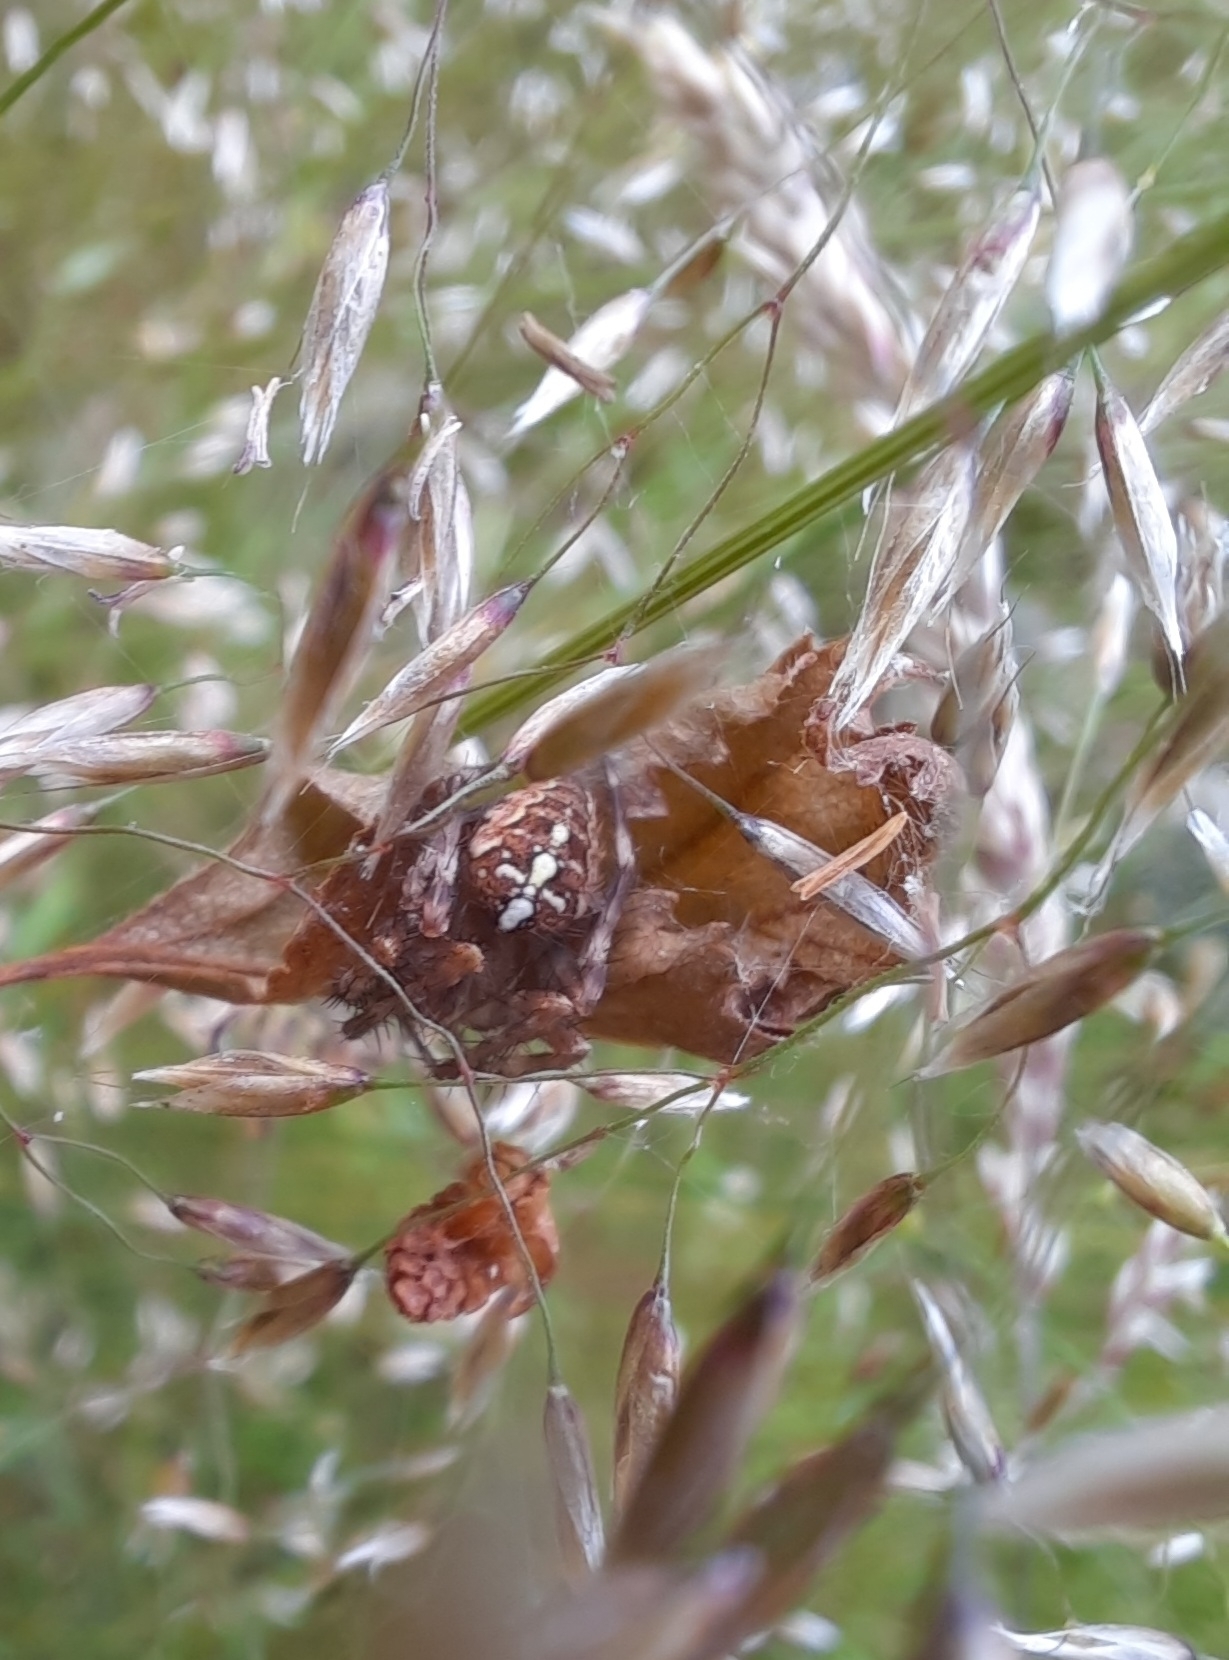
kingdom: Animalia
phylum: Arthropoda
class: Arachnida
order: Araneae
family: Araneidae
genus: Araneus
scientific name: Araneus diadematus
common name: Cross orbweaver
